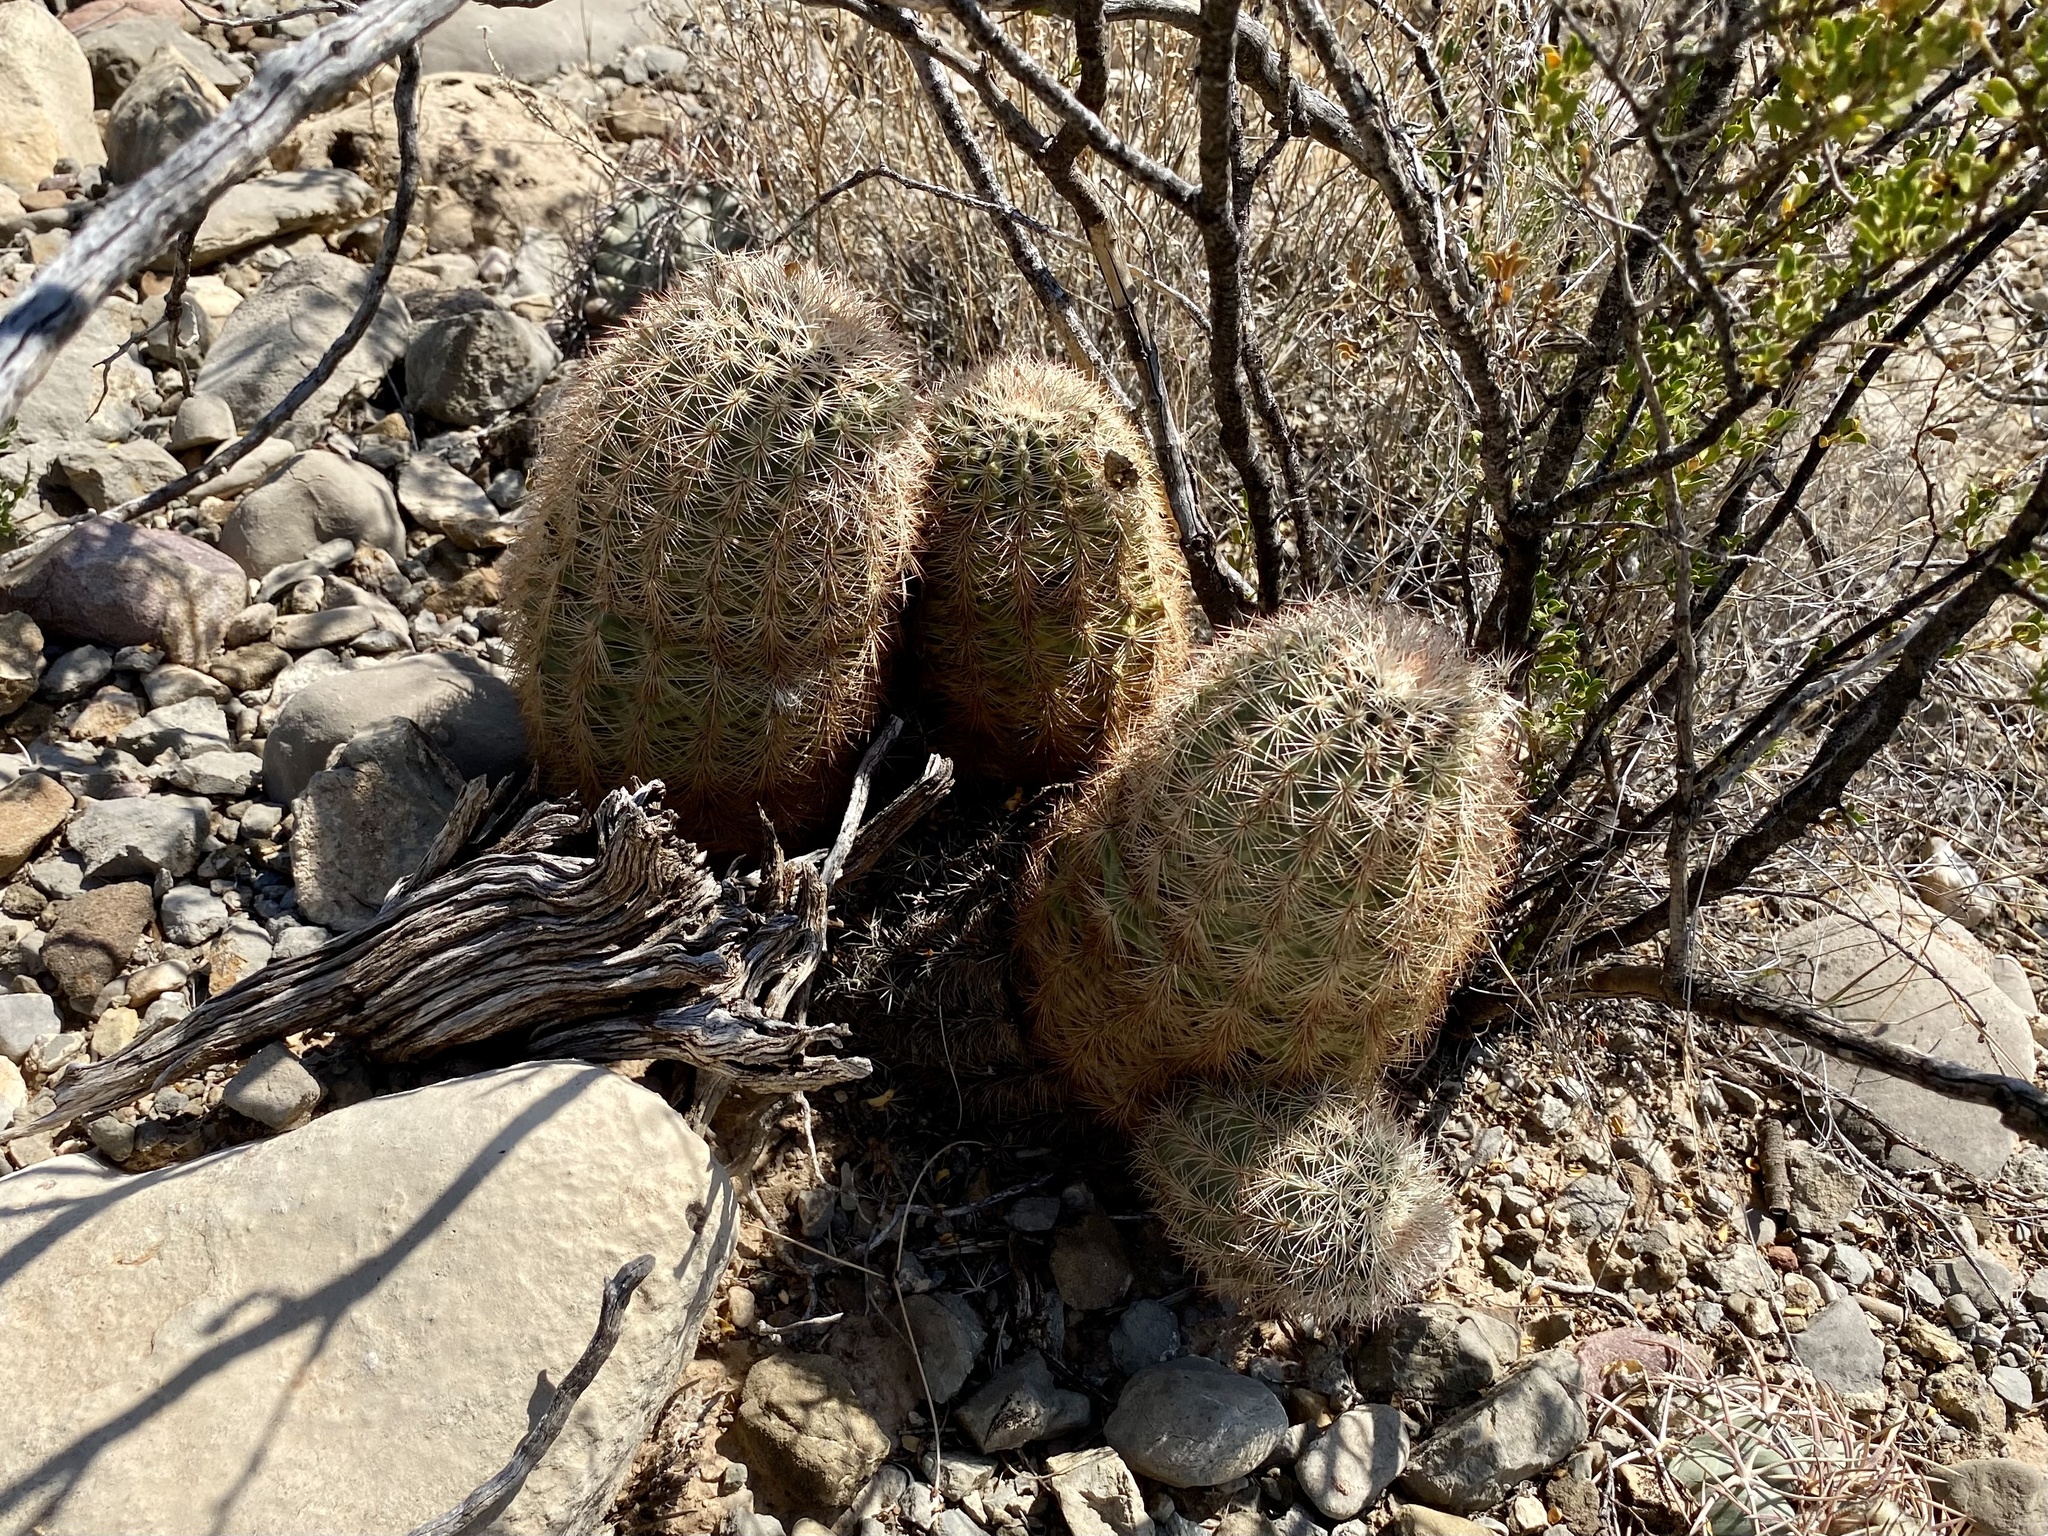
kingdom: Plantae
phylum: Tracheophyta
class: Magnoliopsida
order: Caryophyllales
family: Cactaceae
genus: Echinocereus
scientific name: Echinocereus dasyacanthus
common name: Spiny hedgehog cactus
